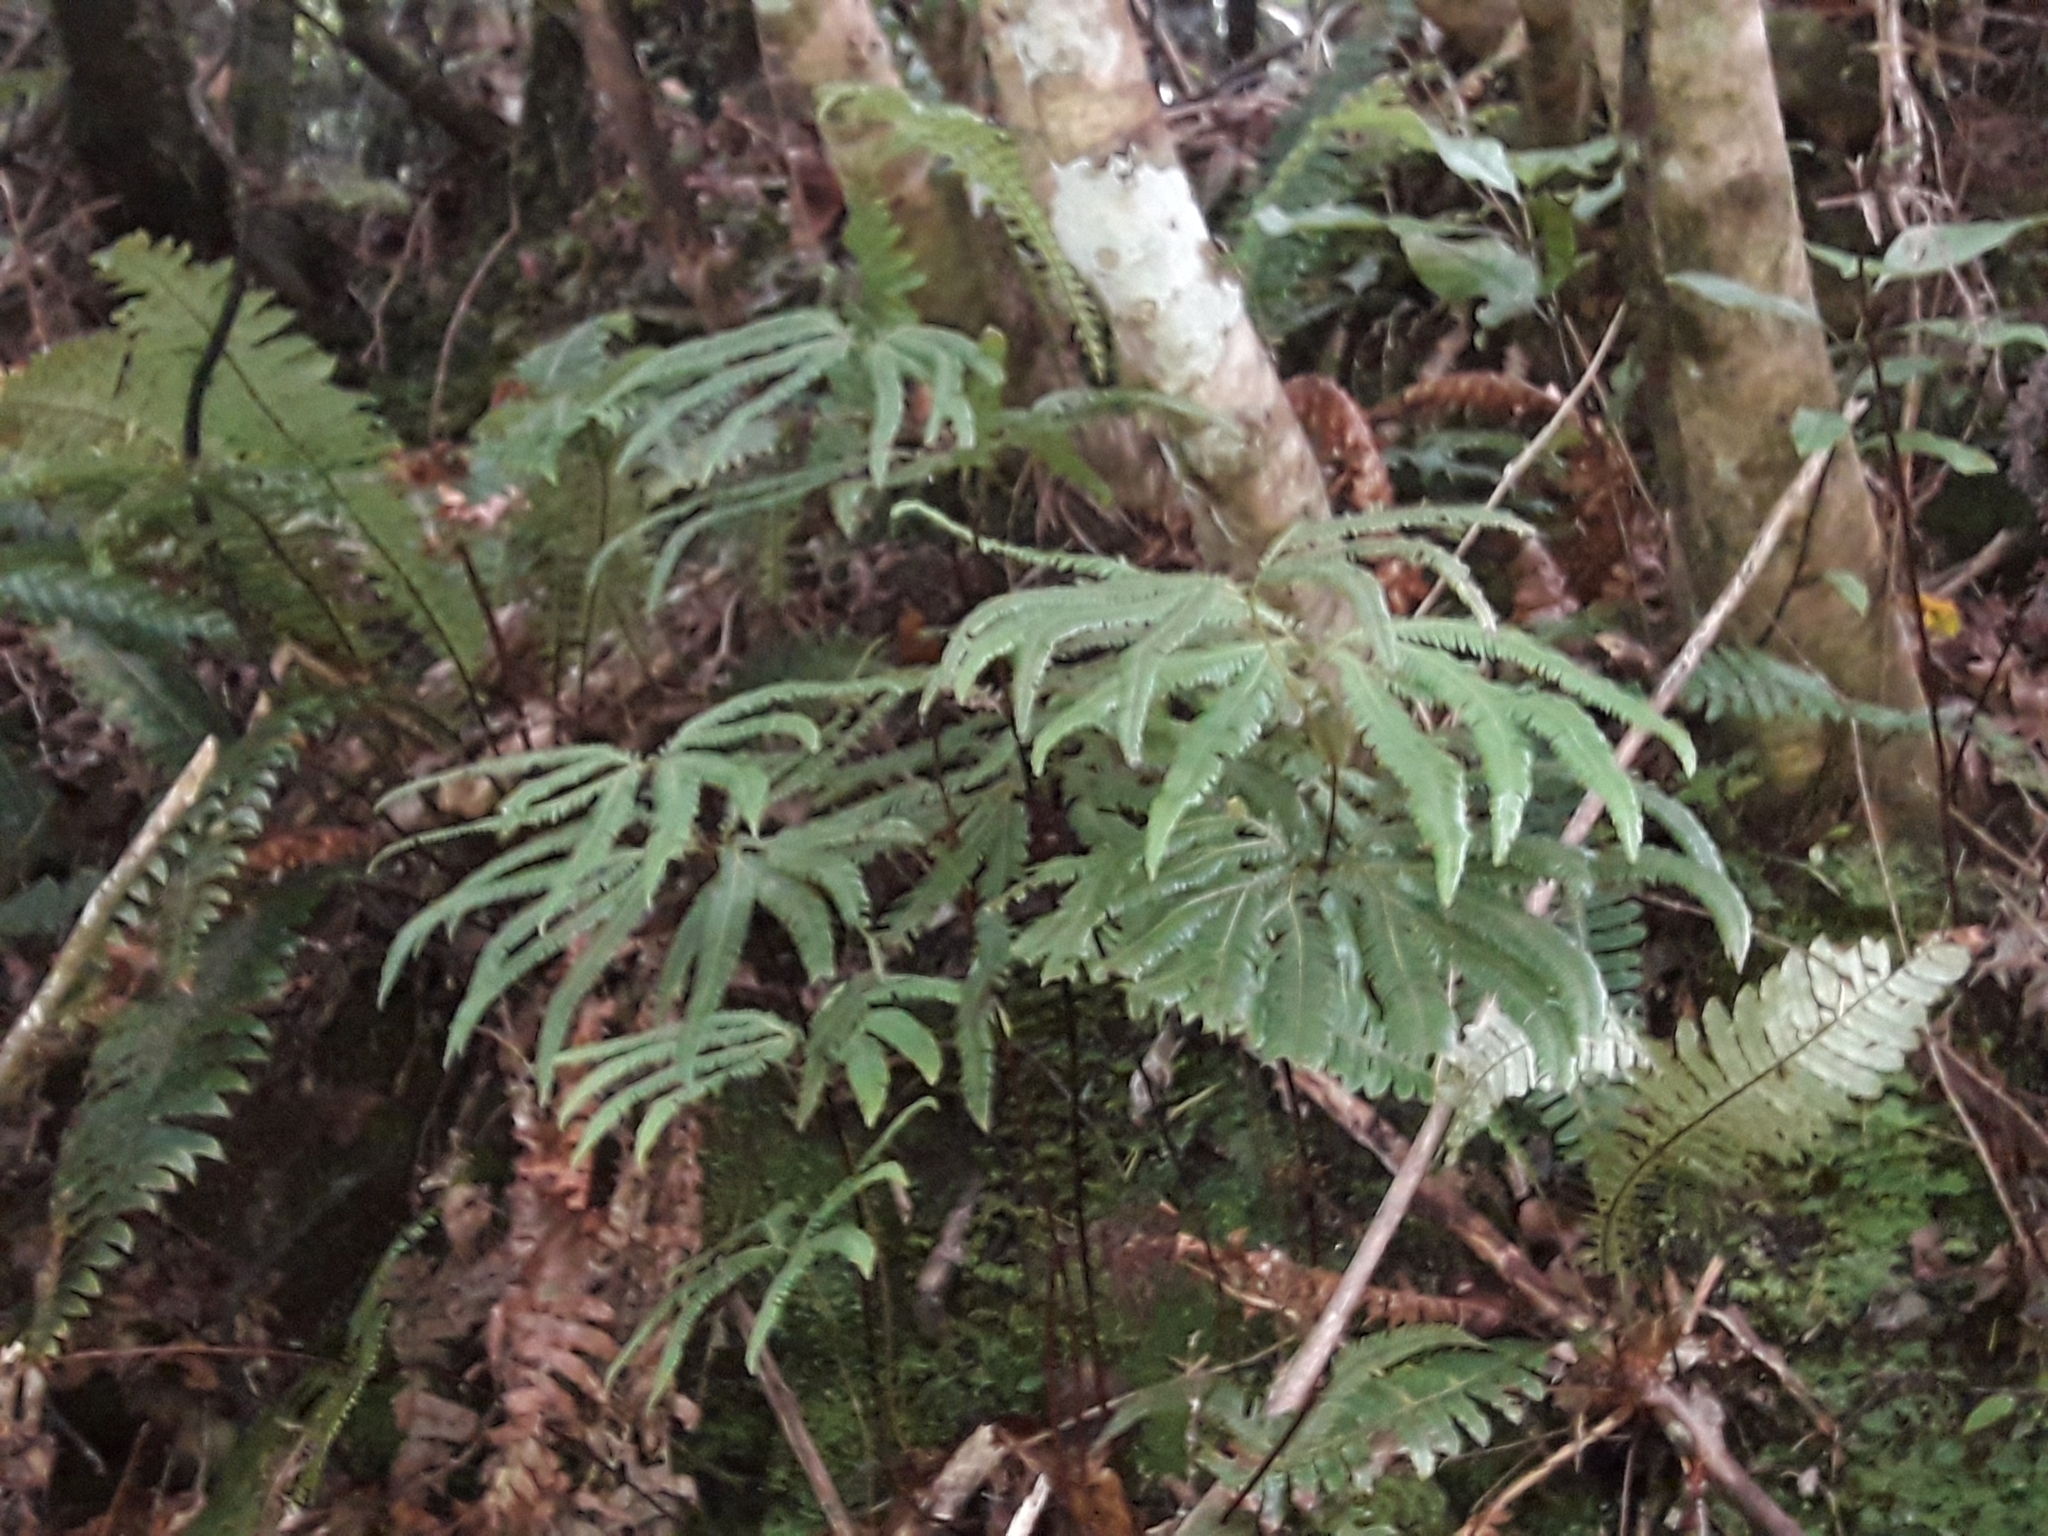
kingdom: Plantae
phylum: Tracheophyta
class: Polypodiopsida
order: Gleicheniales
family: Gleicheniaceae
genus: Sticherus
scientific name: Sticherus cunninghamii
